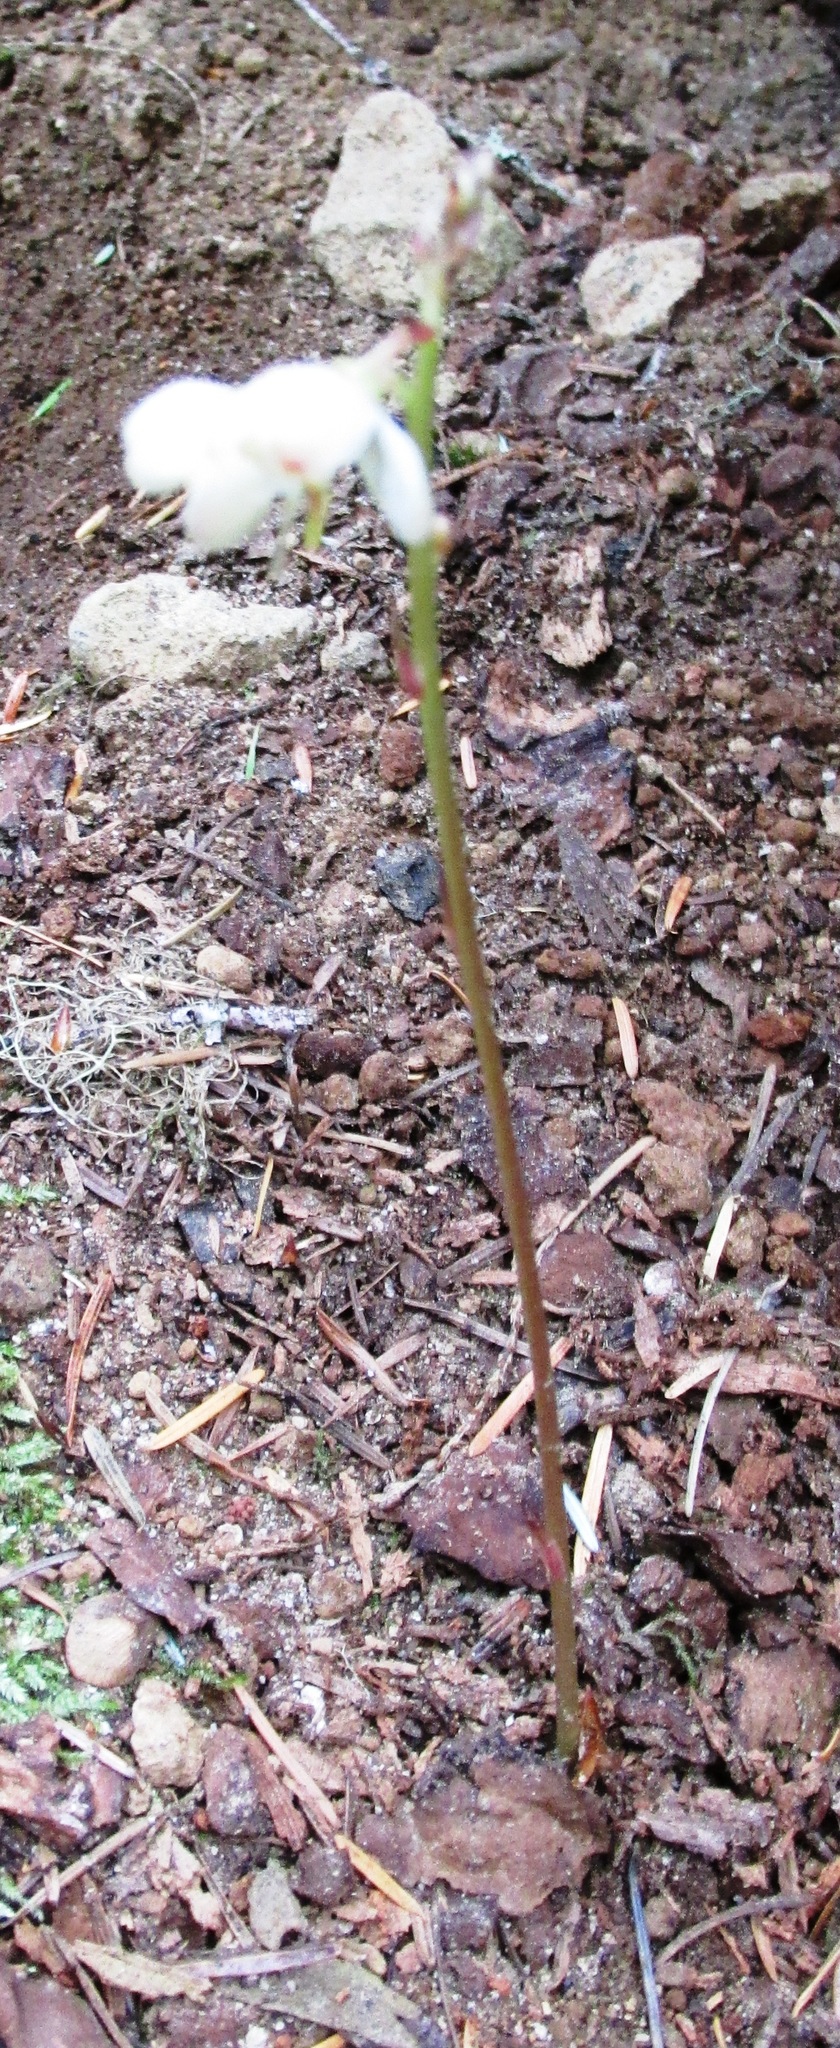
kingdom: Plantae
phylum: Tracheophyta
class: Magnoliopsida
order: Ericales
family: Ericaceae
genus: Pyrola
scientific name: Pyrola aphylla
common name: Leafless wintergreen
